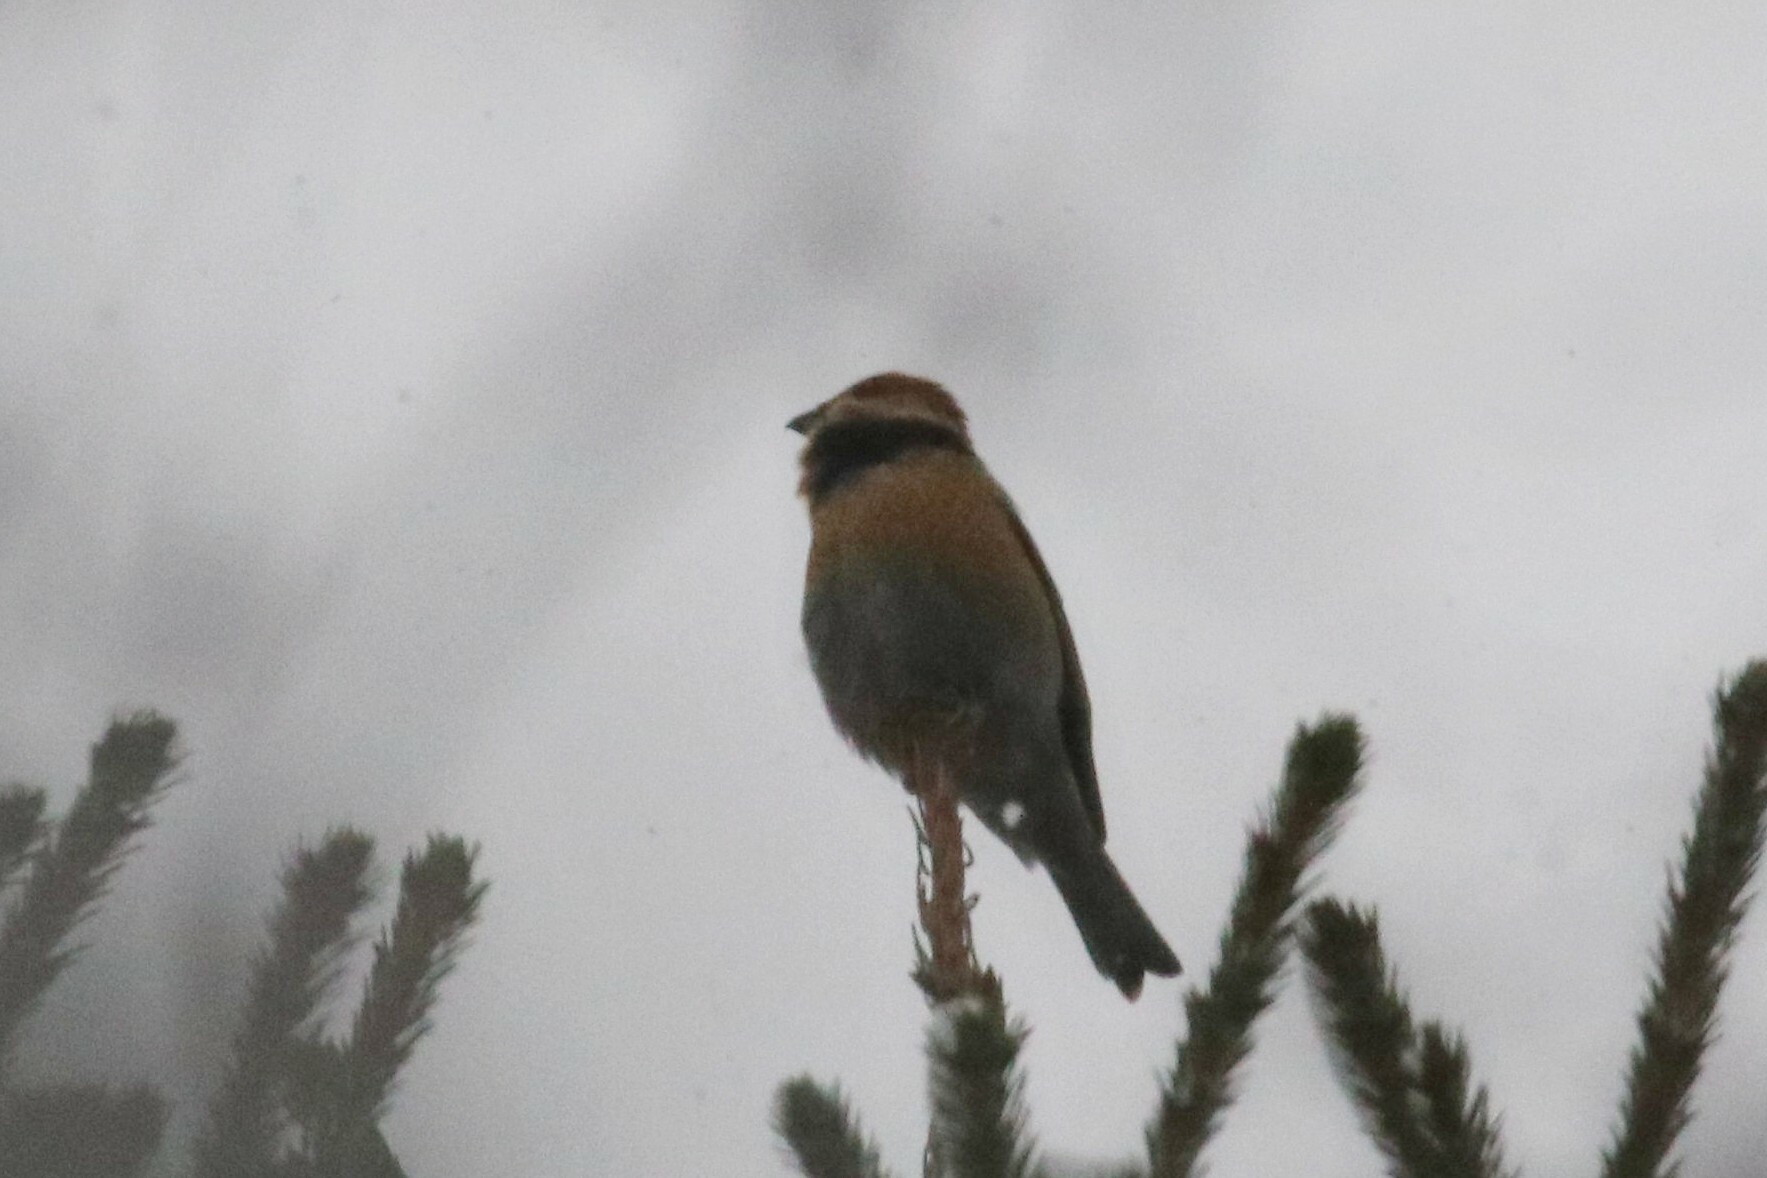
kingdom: Animalia
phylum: Chordata
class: Aves
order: Passeriformes
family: Fringillidae
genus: Pinicola
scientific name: Pinicola enucleator
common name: Pine grosbeak
